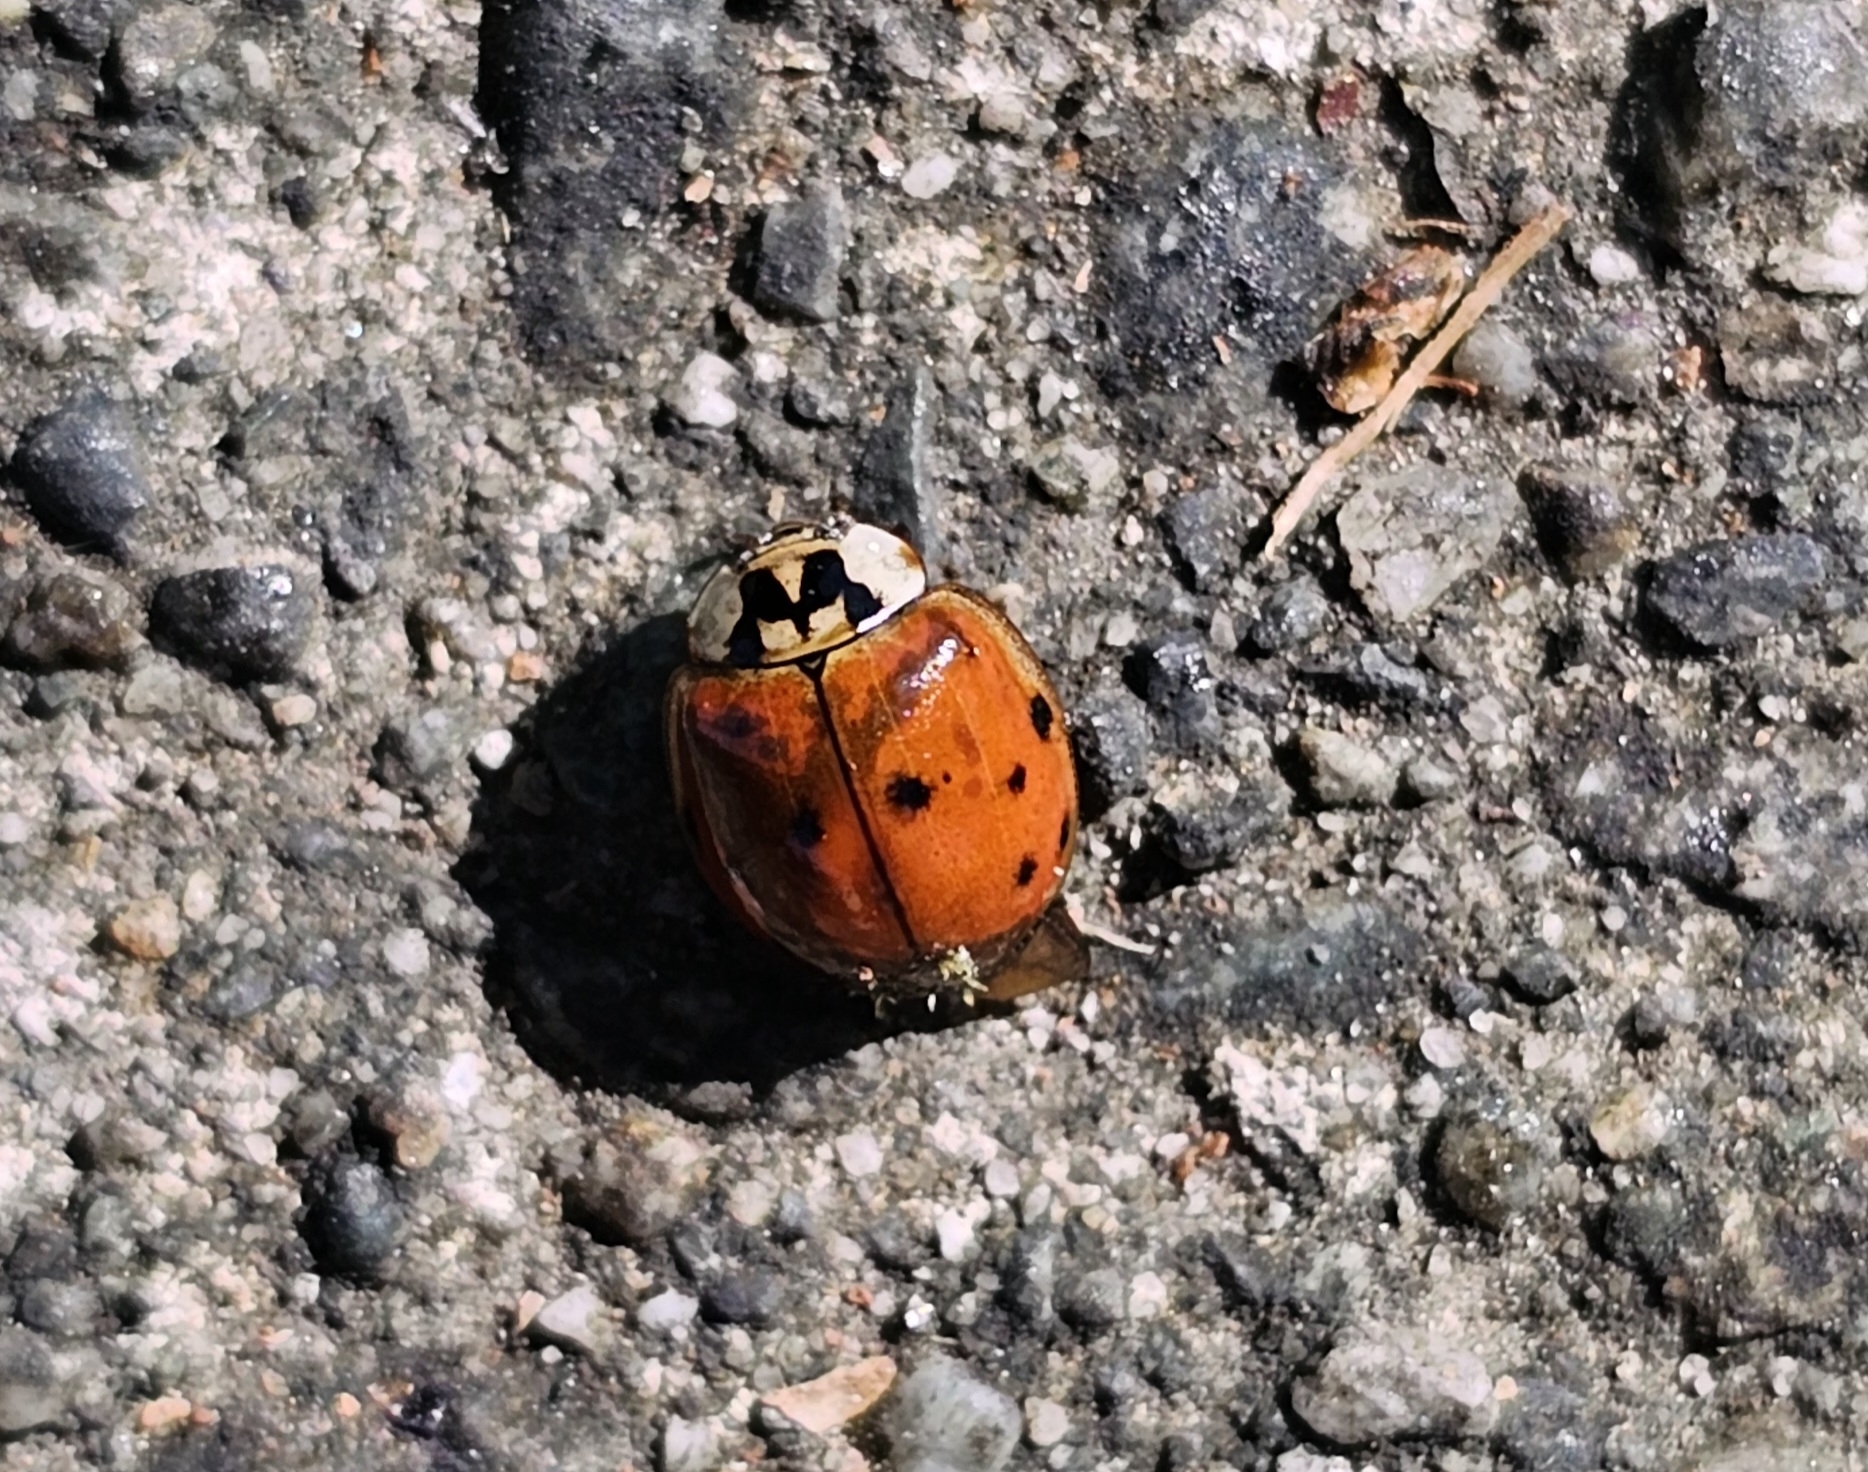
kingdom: Animalia
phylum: Arthropoda
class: Insecta
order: Coleoptera
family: Coccinellidae
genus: Harmonia
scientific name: Harmonia axyridis
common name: Harlequin ladybird
